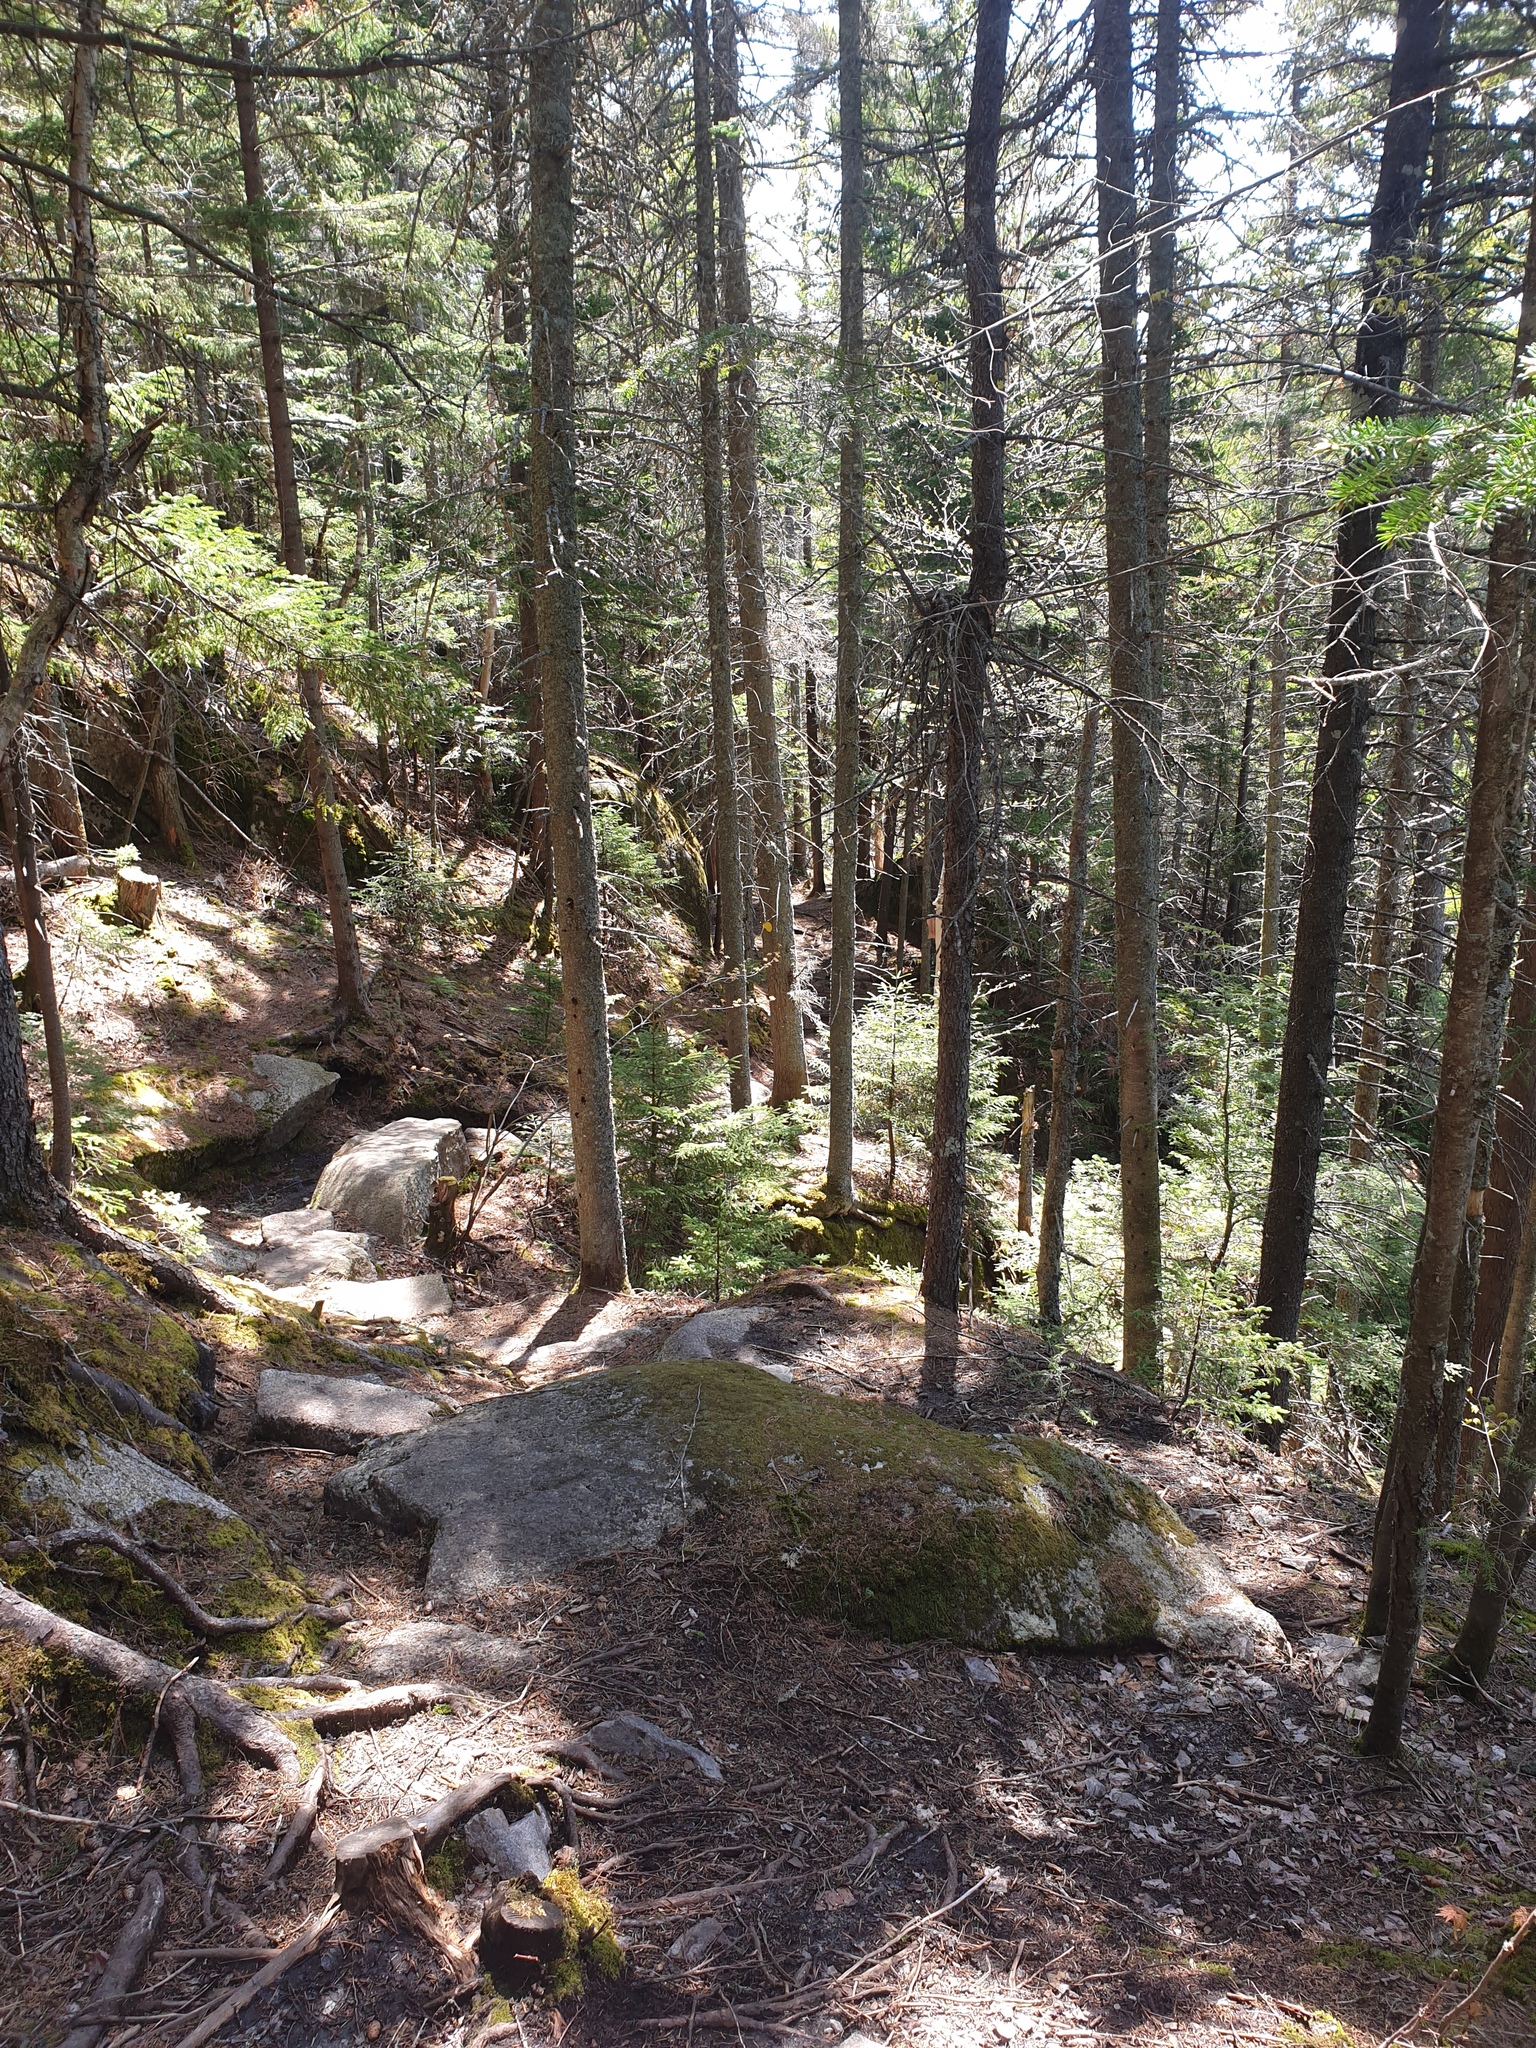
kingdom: Plantae
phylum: Tracheophyta
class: Pinopsida
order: Pinales
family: Pinaceae
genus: Abies
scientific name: Abies balsamea
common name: Balsam fir
